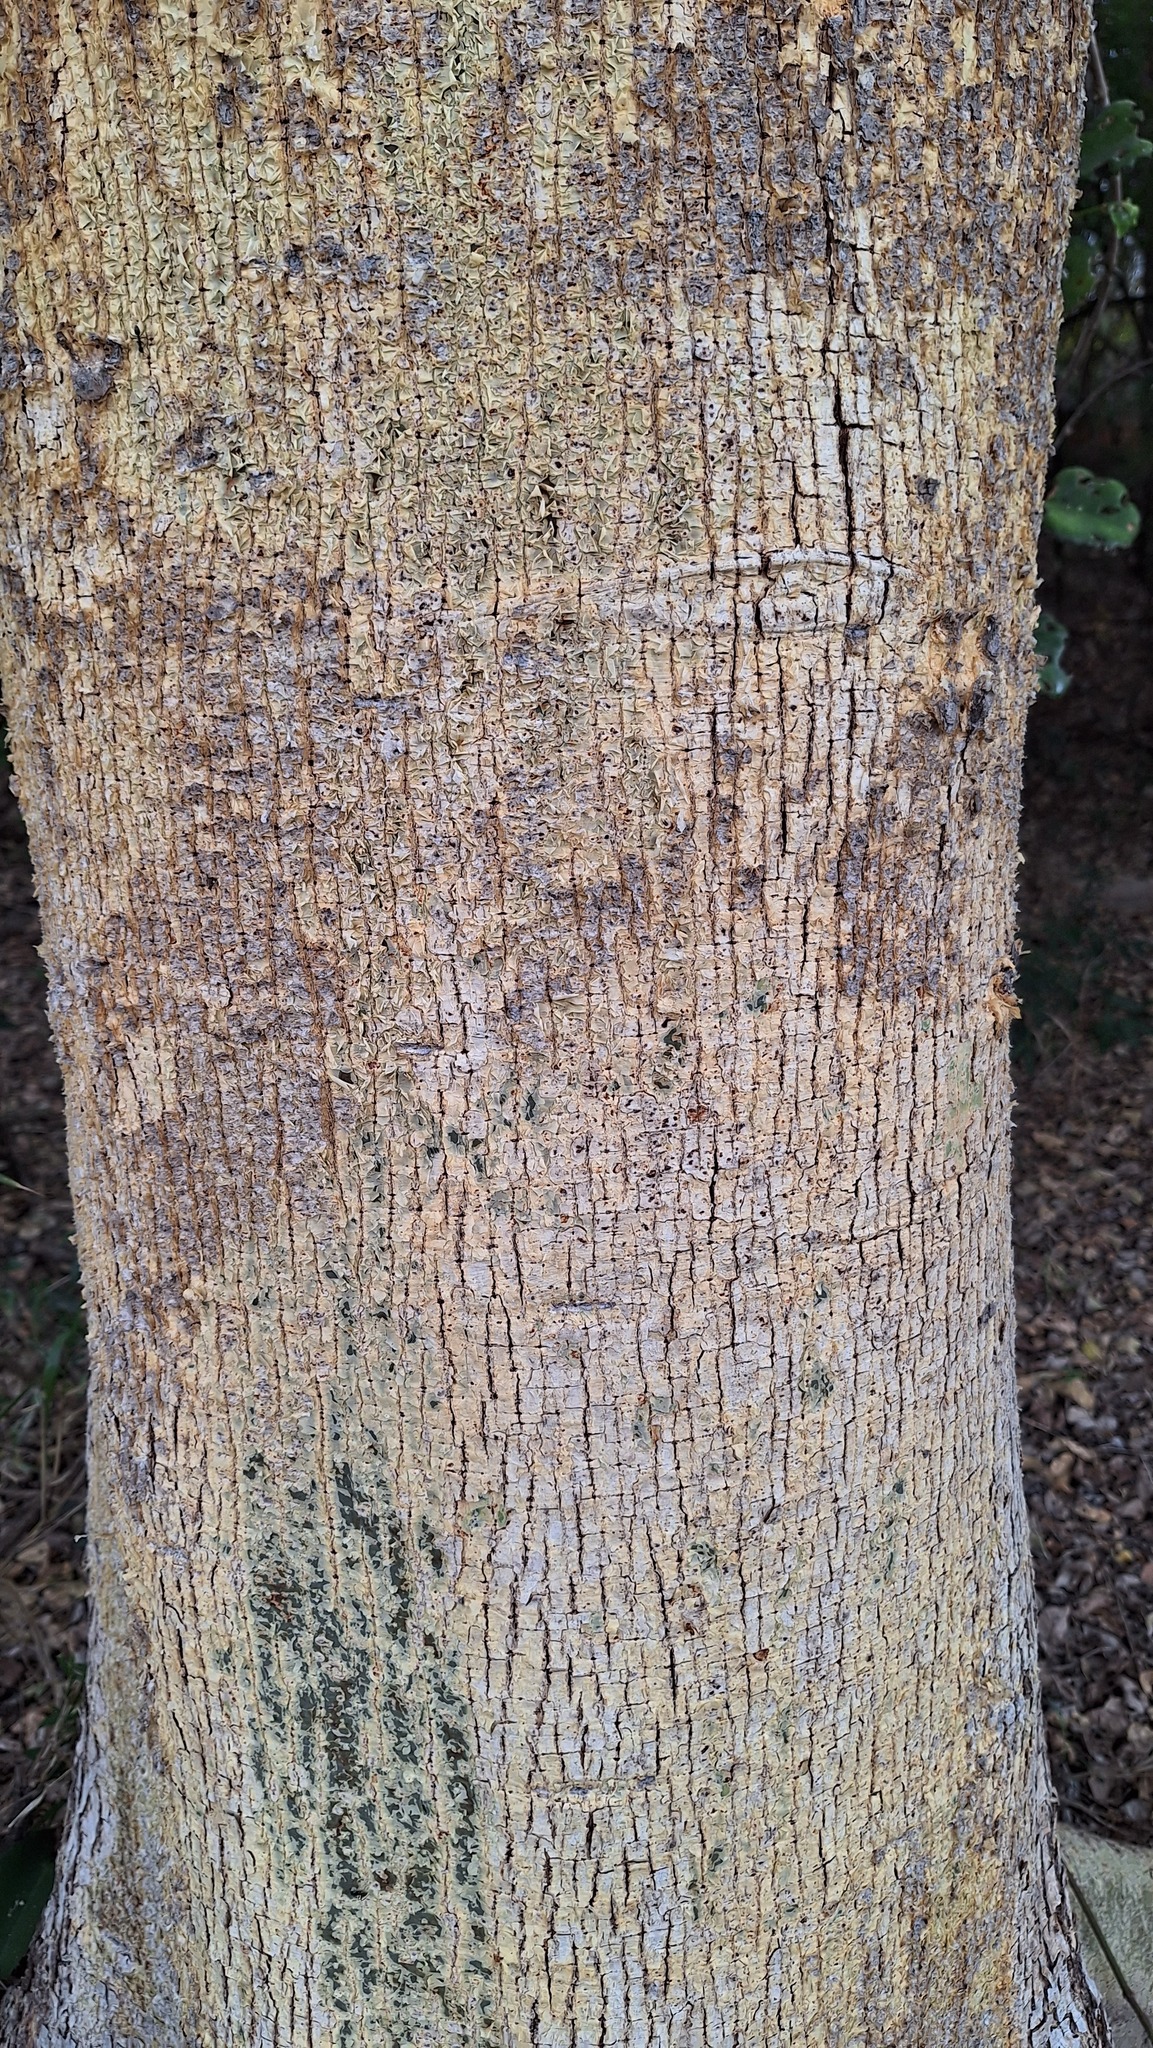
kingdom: Plantae
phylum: Tracheophyta
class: Magnoliopsida
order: Rosales
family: Moraceae
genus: Ficus
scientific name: Ficus sycomorus
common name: Sycomore
